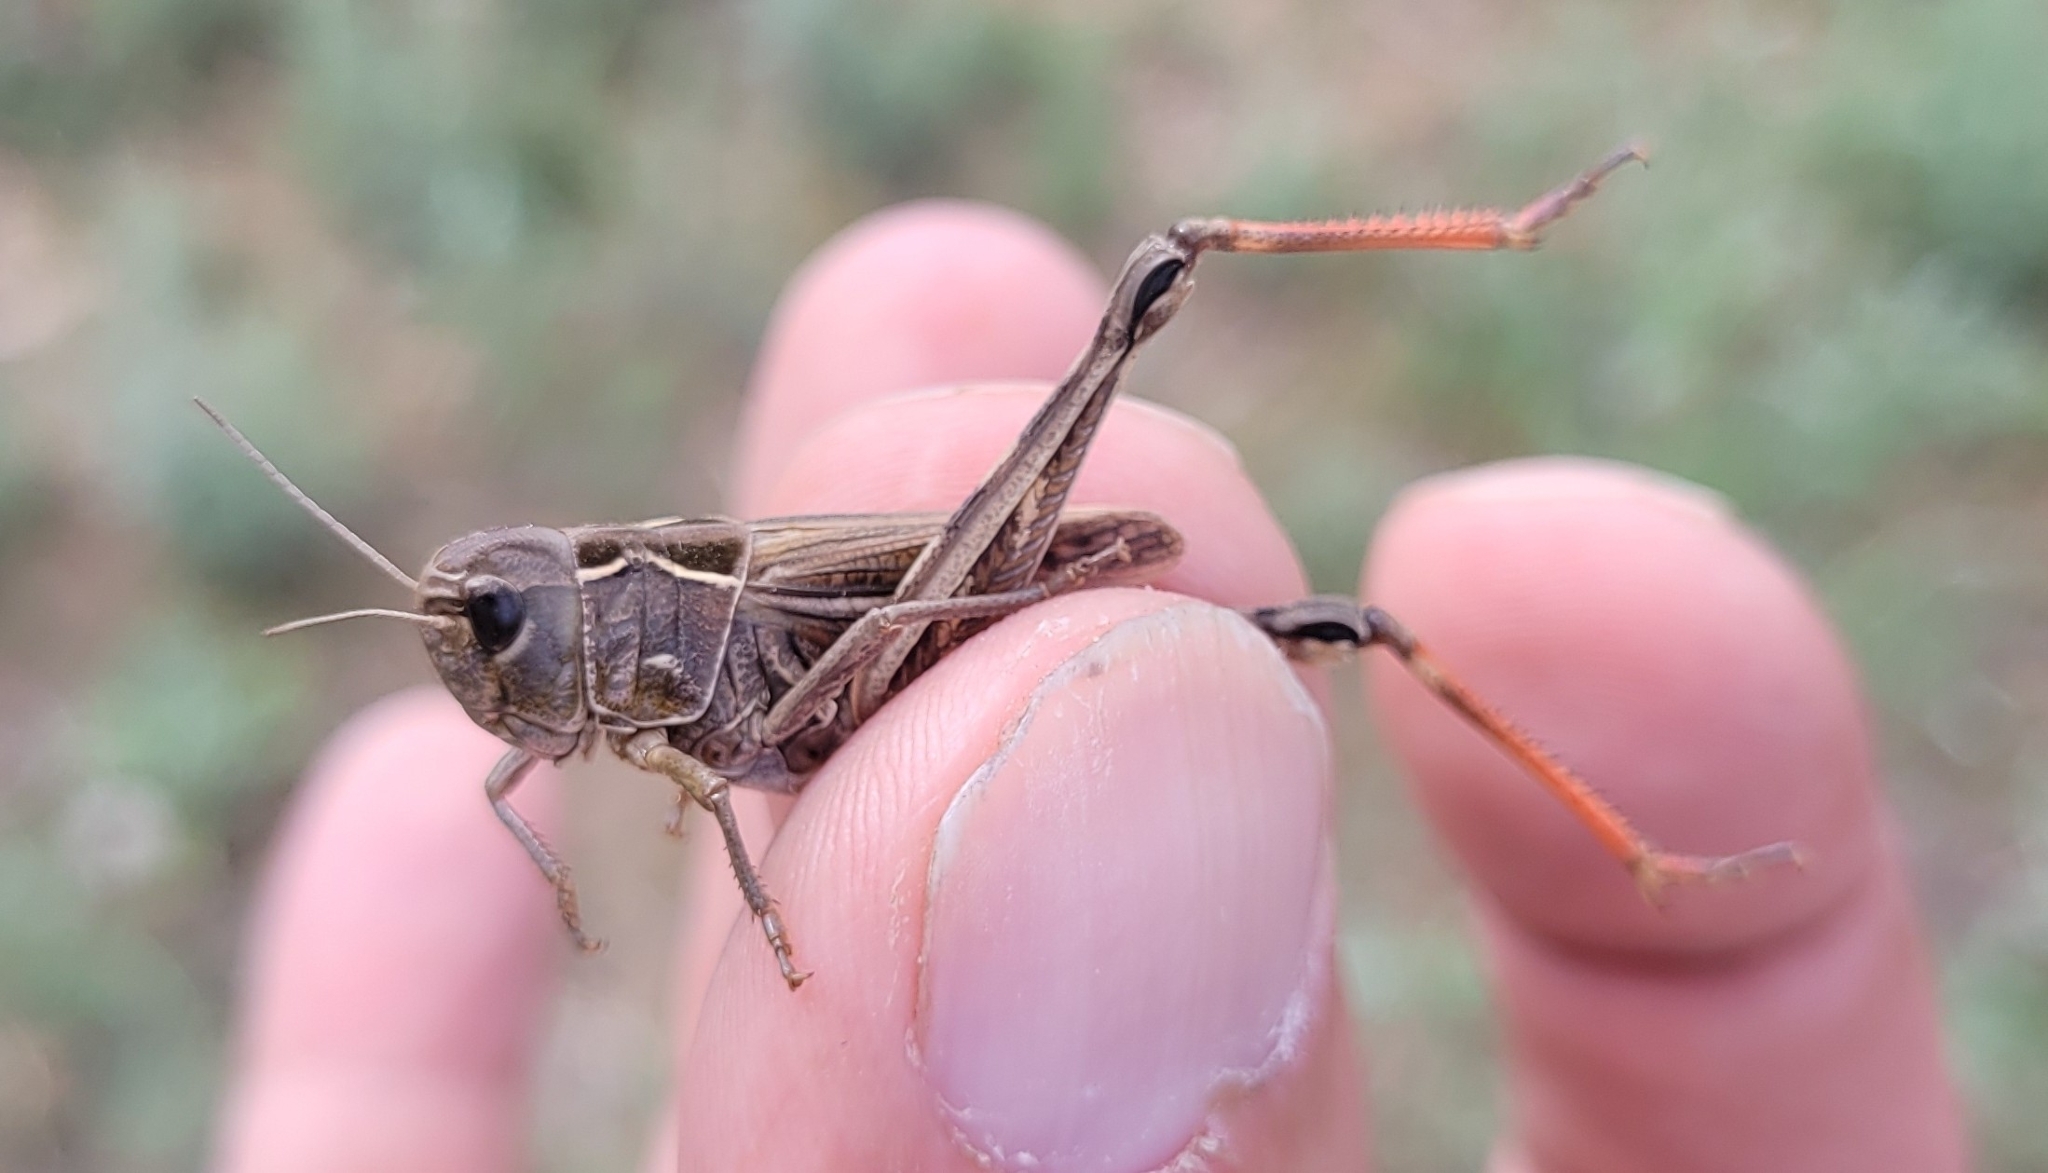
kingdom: Animalia
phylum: Arthropoda
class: Insecta
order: Orthoptera
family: Acrididae
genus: Arcyptera
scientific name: Arcyptera microptera
